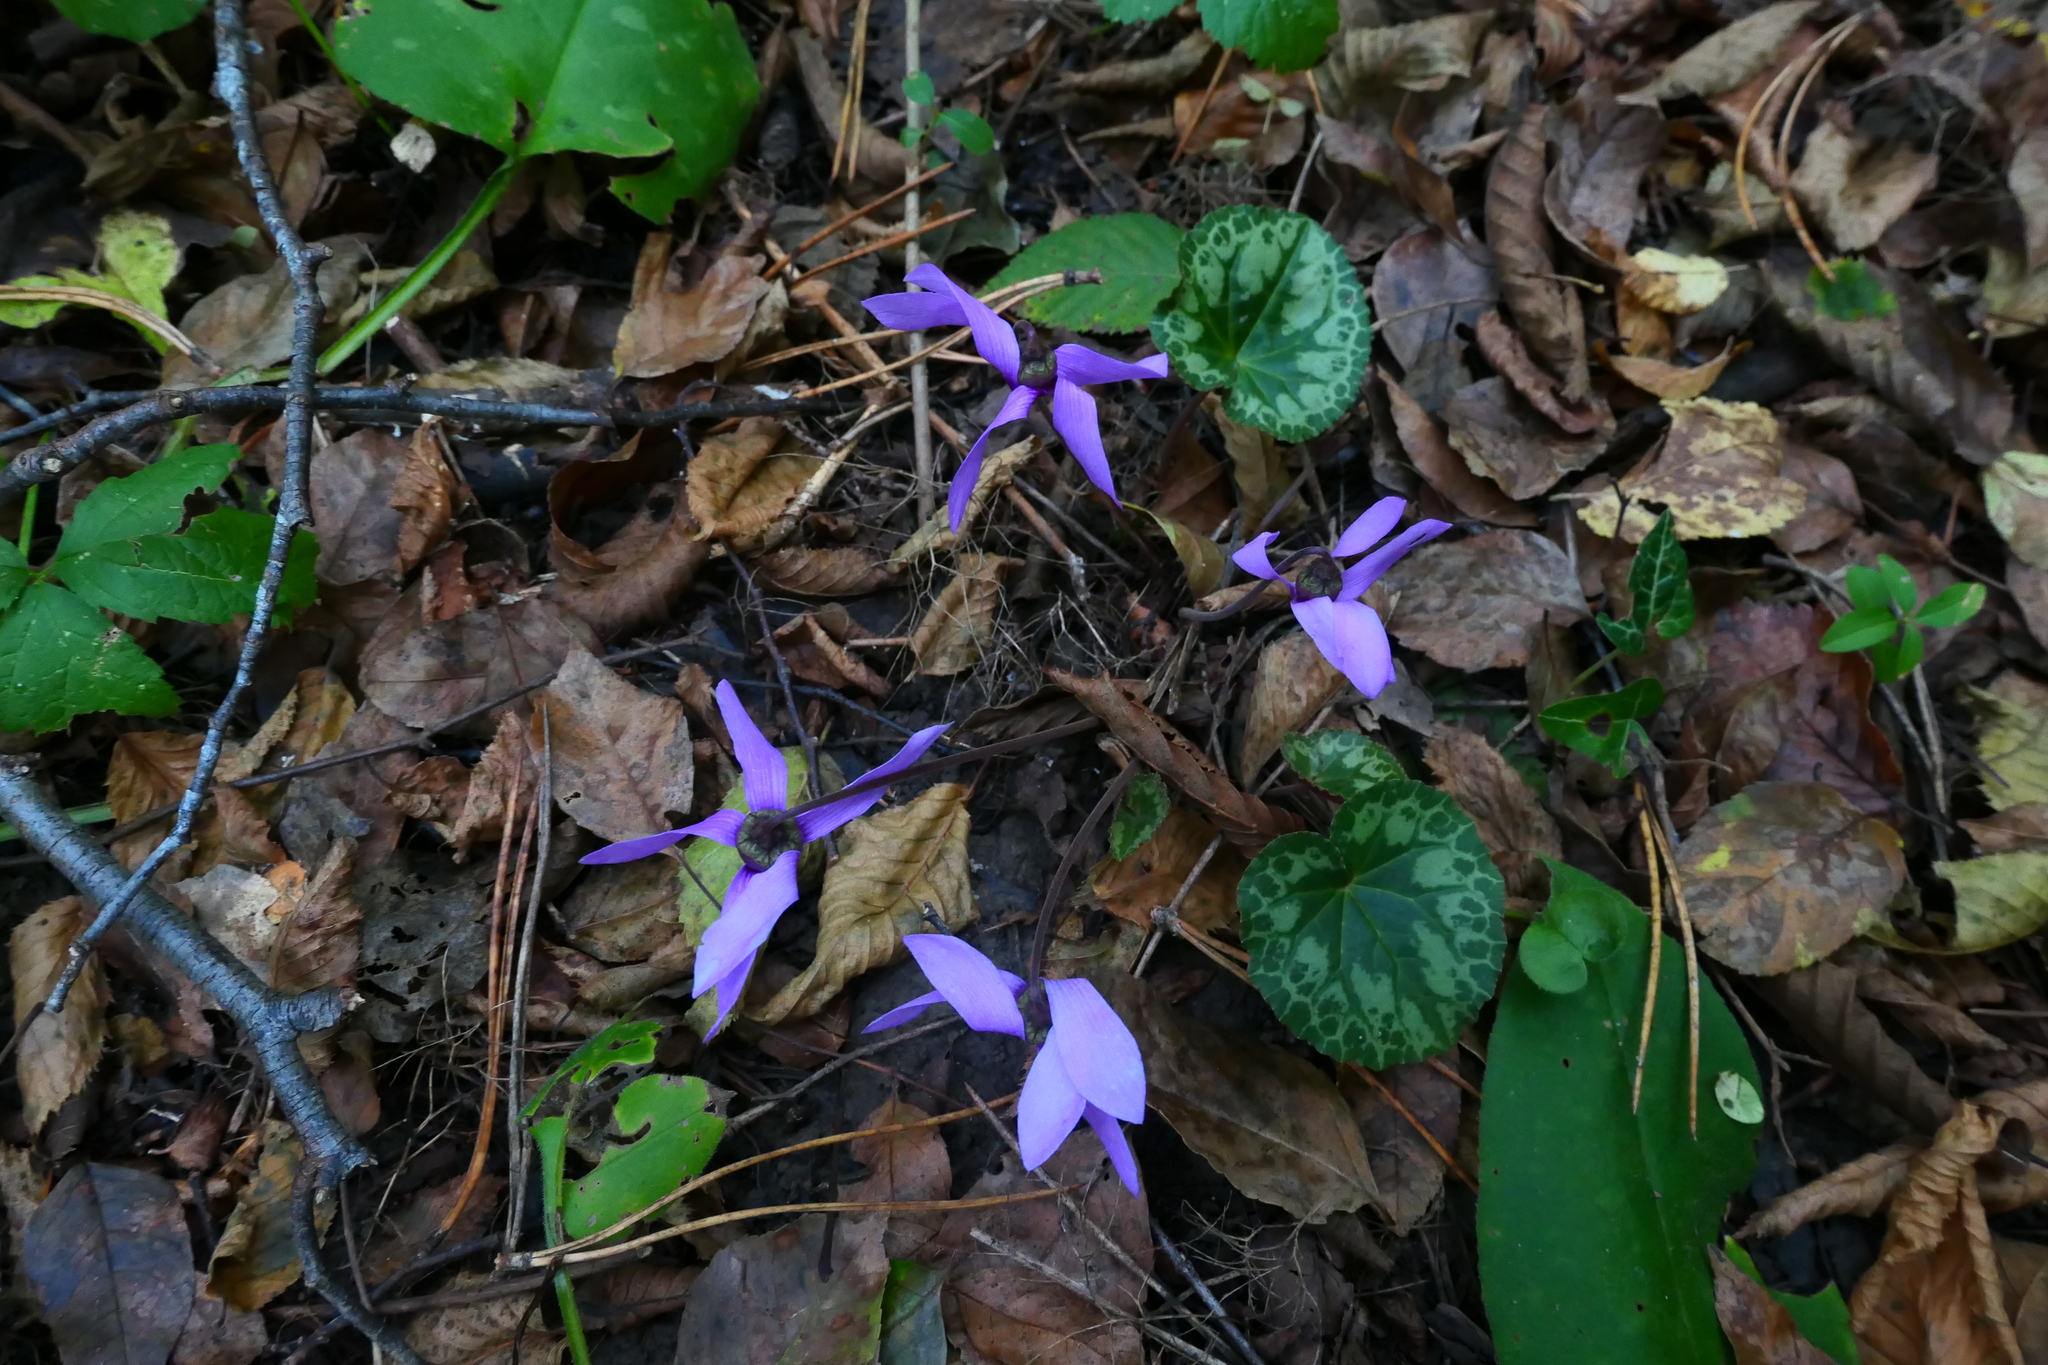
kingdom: Plantae
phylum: Tracheophyta
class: Magnoliopsida
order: Ericales
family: Primulaceae
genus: Cyclamen
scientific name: Cyclamen purpurascens
